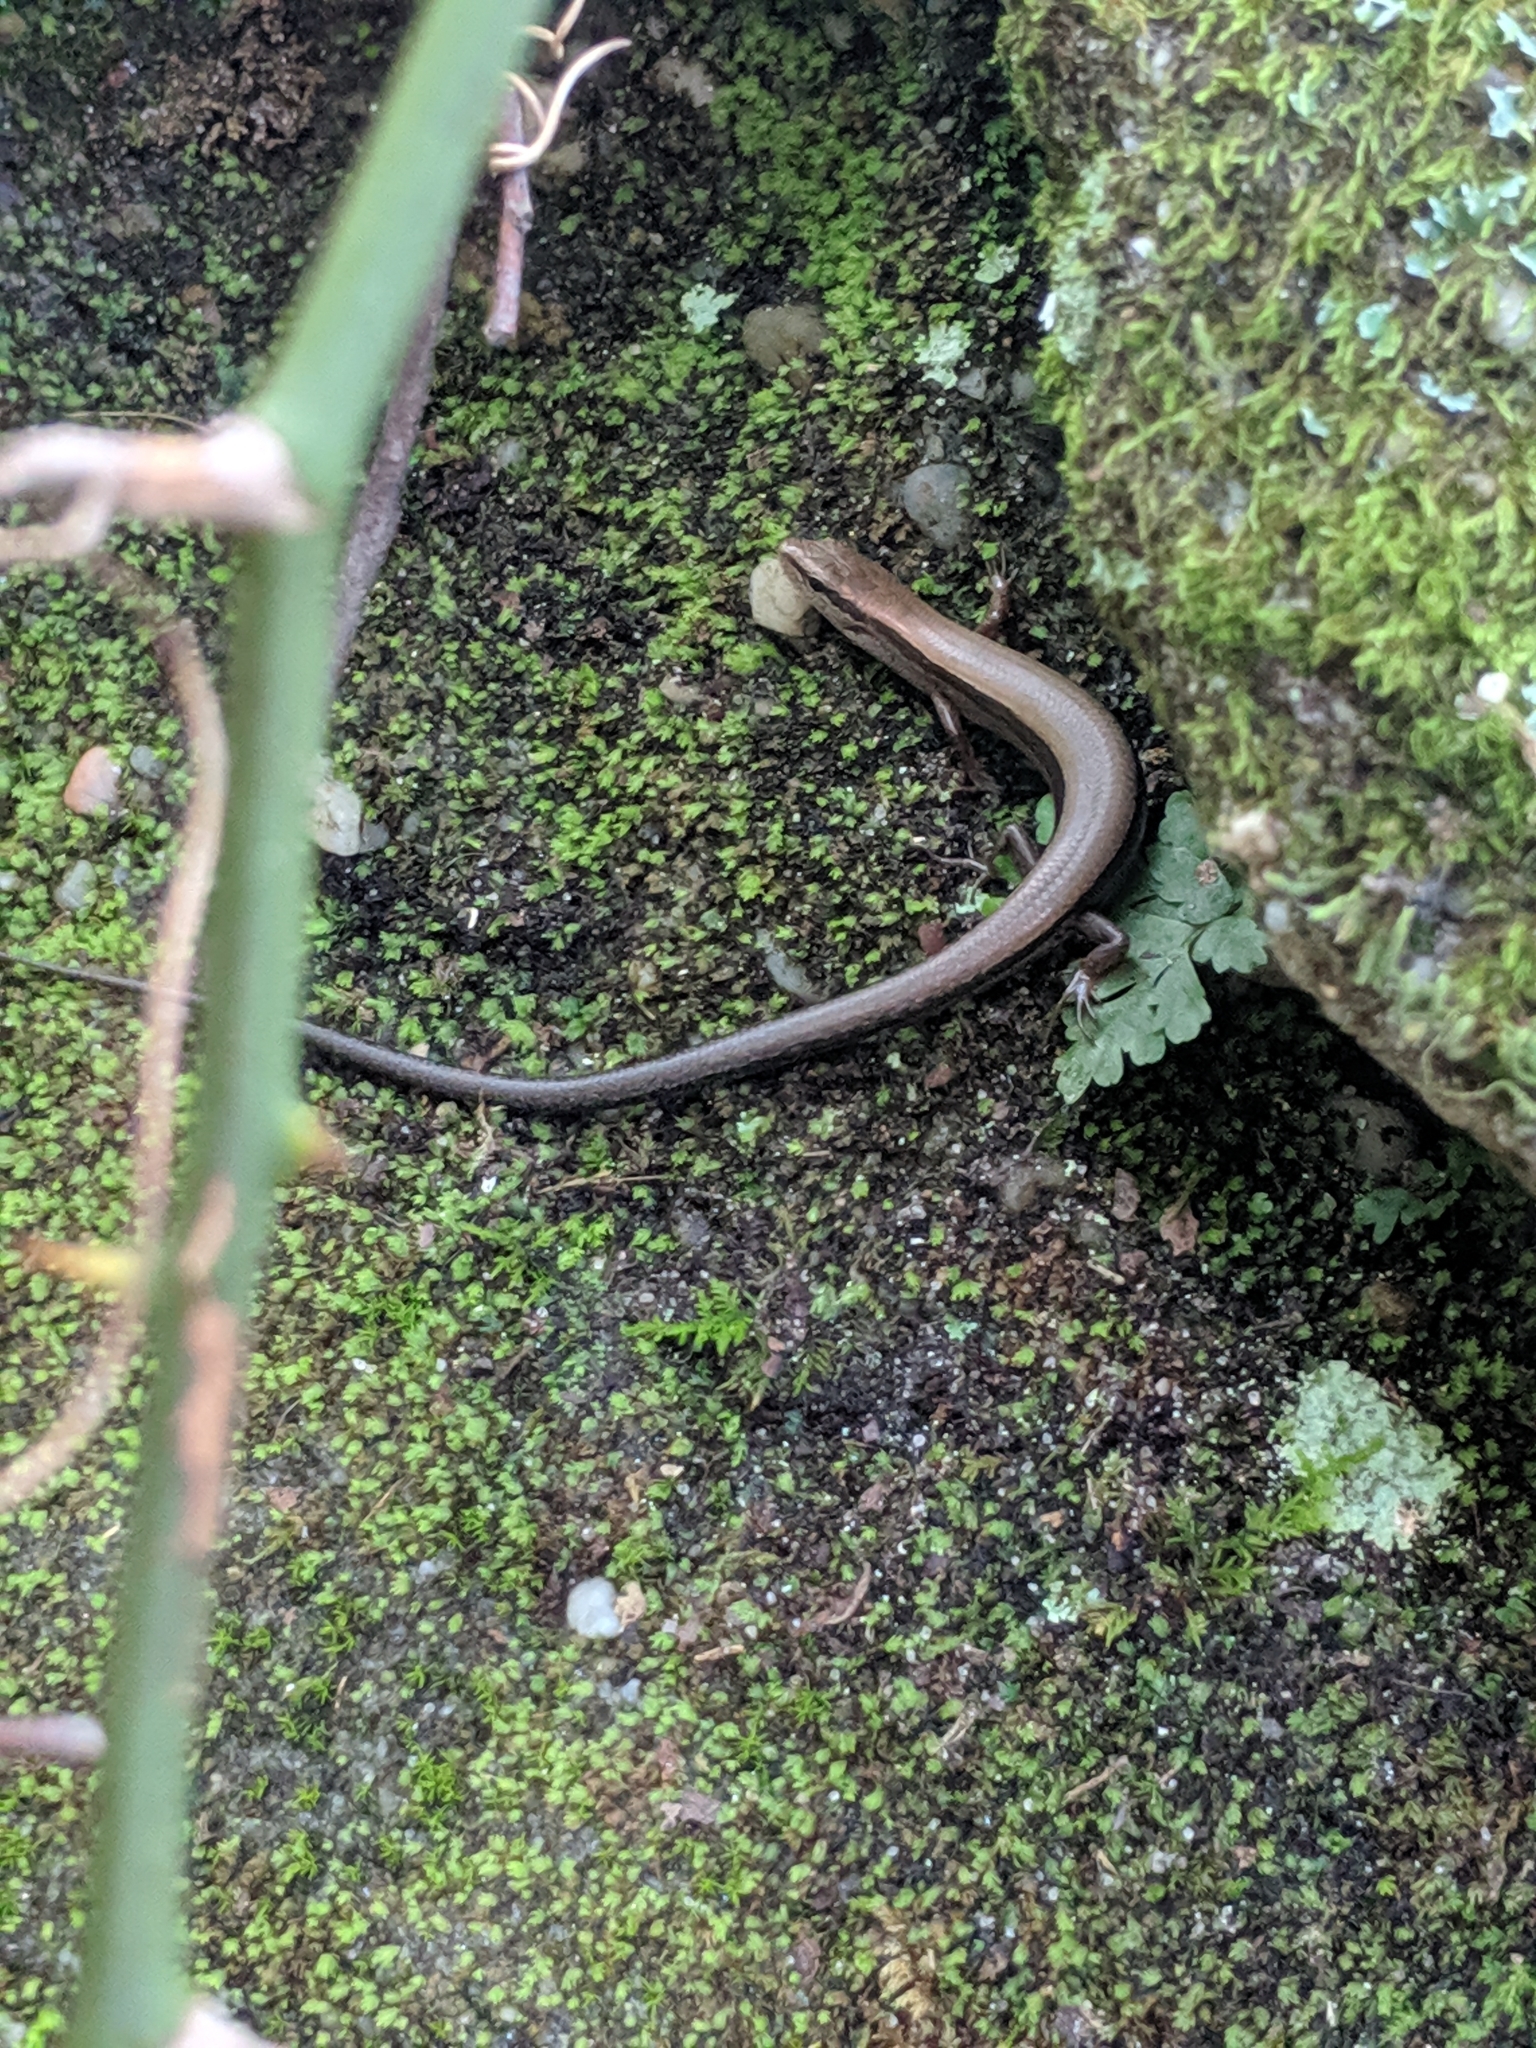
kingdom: Animalia
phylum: Chordata
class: Squamata
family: Scincidae
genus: Scincella
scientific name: Scincella lateralis
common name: Ground skink
